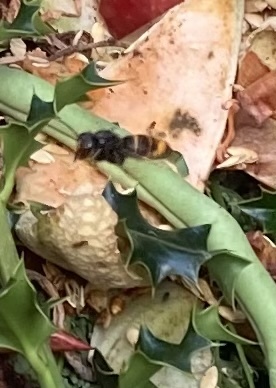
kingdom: Animalia
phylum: Arthropoda
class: Insecta
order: Hymenoptera
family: Vespidae
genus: Vespa
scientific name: Vespa velutina
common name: Asian hornet
